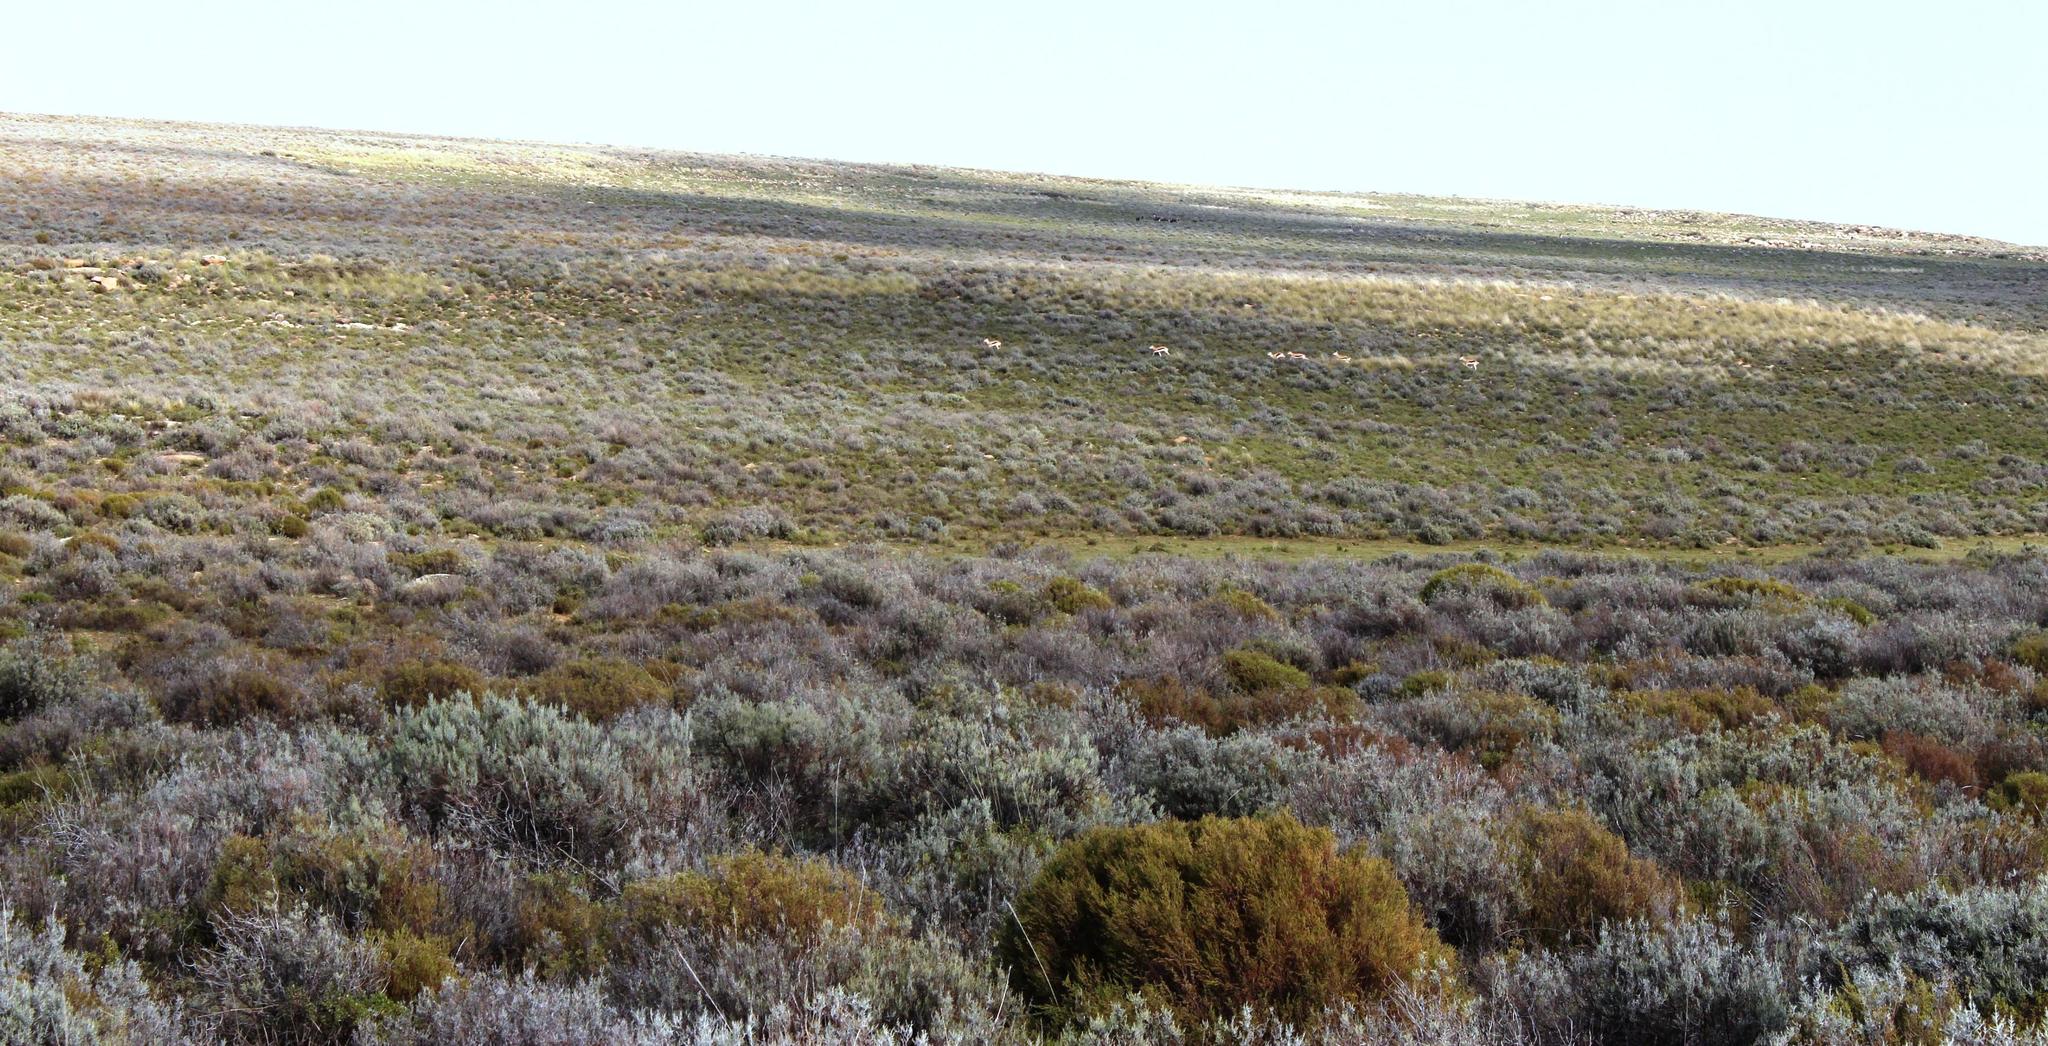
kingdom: Animalia
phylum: Chordata
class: Mammalia
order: Artiodactyla
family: Bovidae
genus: Antidorcas
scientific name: Antidorcas marsupialis
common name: Springbok
